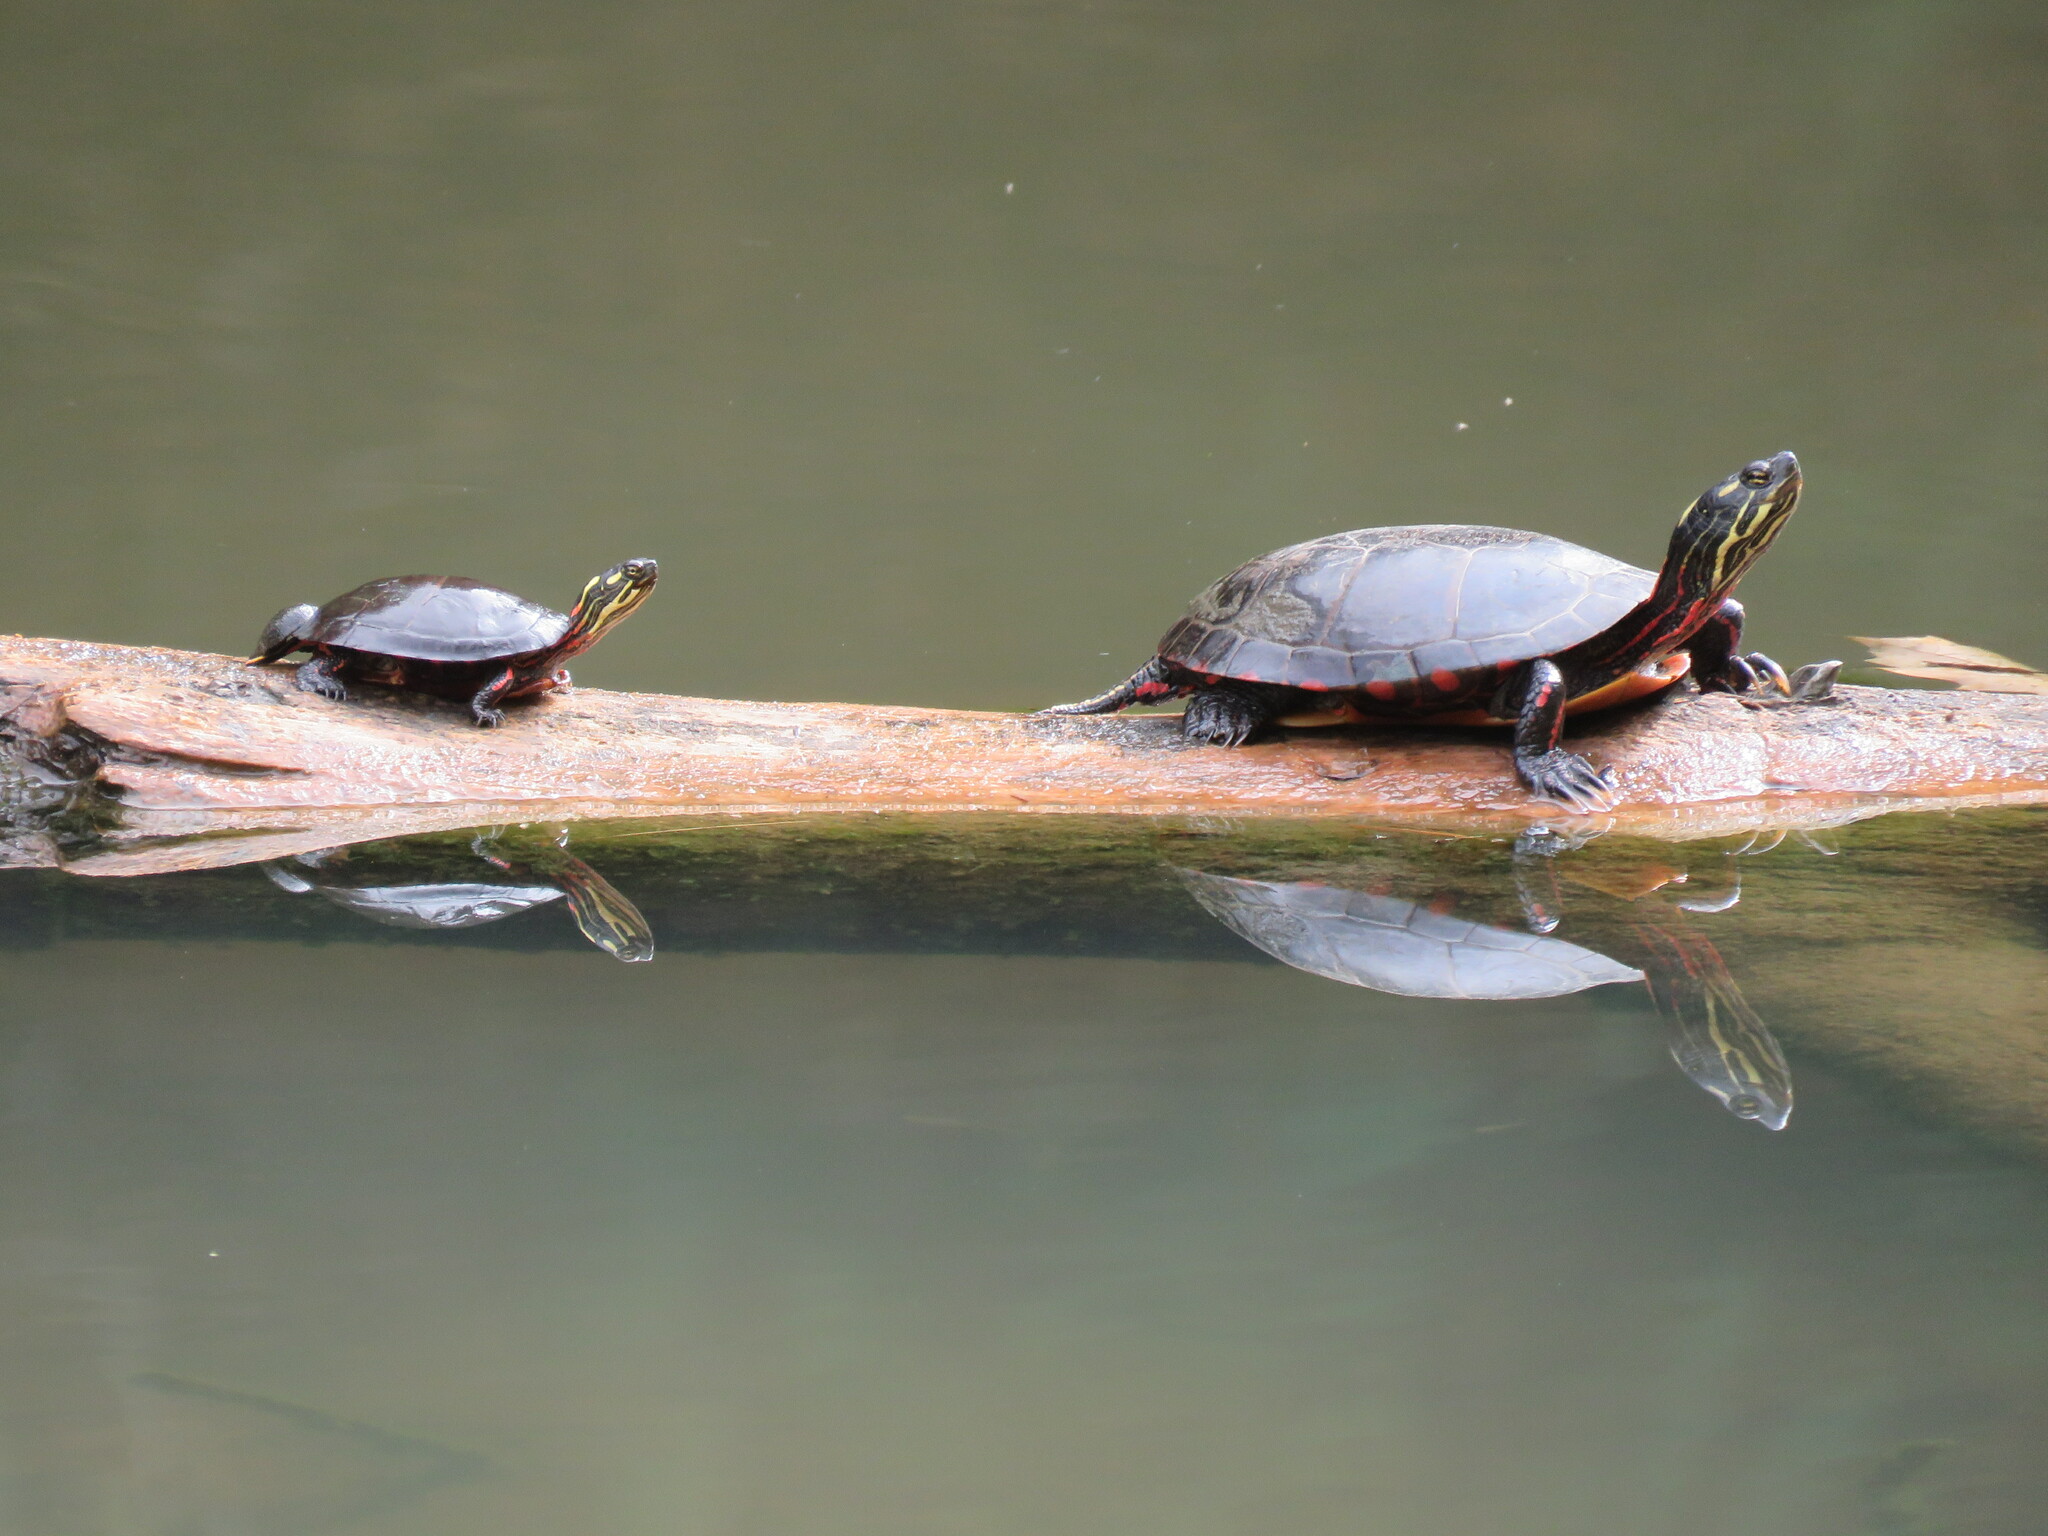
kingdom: Animalia
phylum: Chordata
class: Testudines
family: Emydidae
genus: Chrysemys
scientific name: Chrysemys picta
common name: Painted turtle
